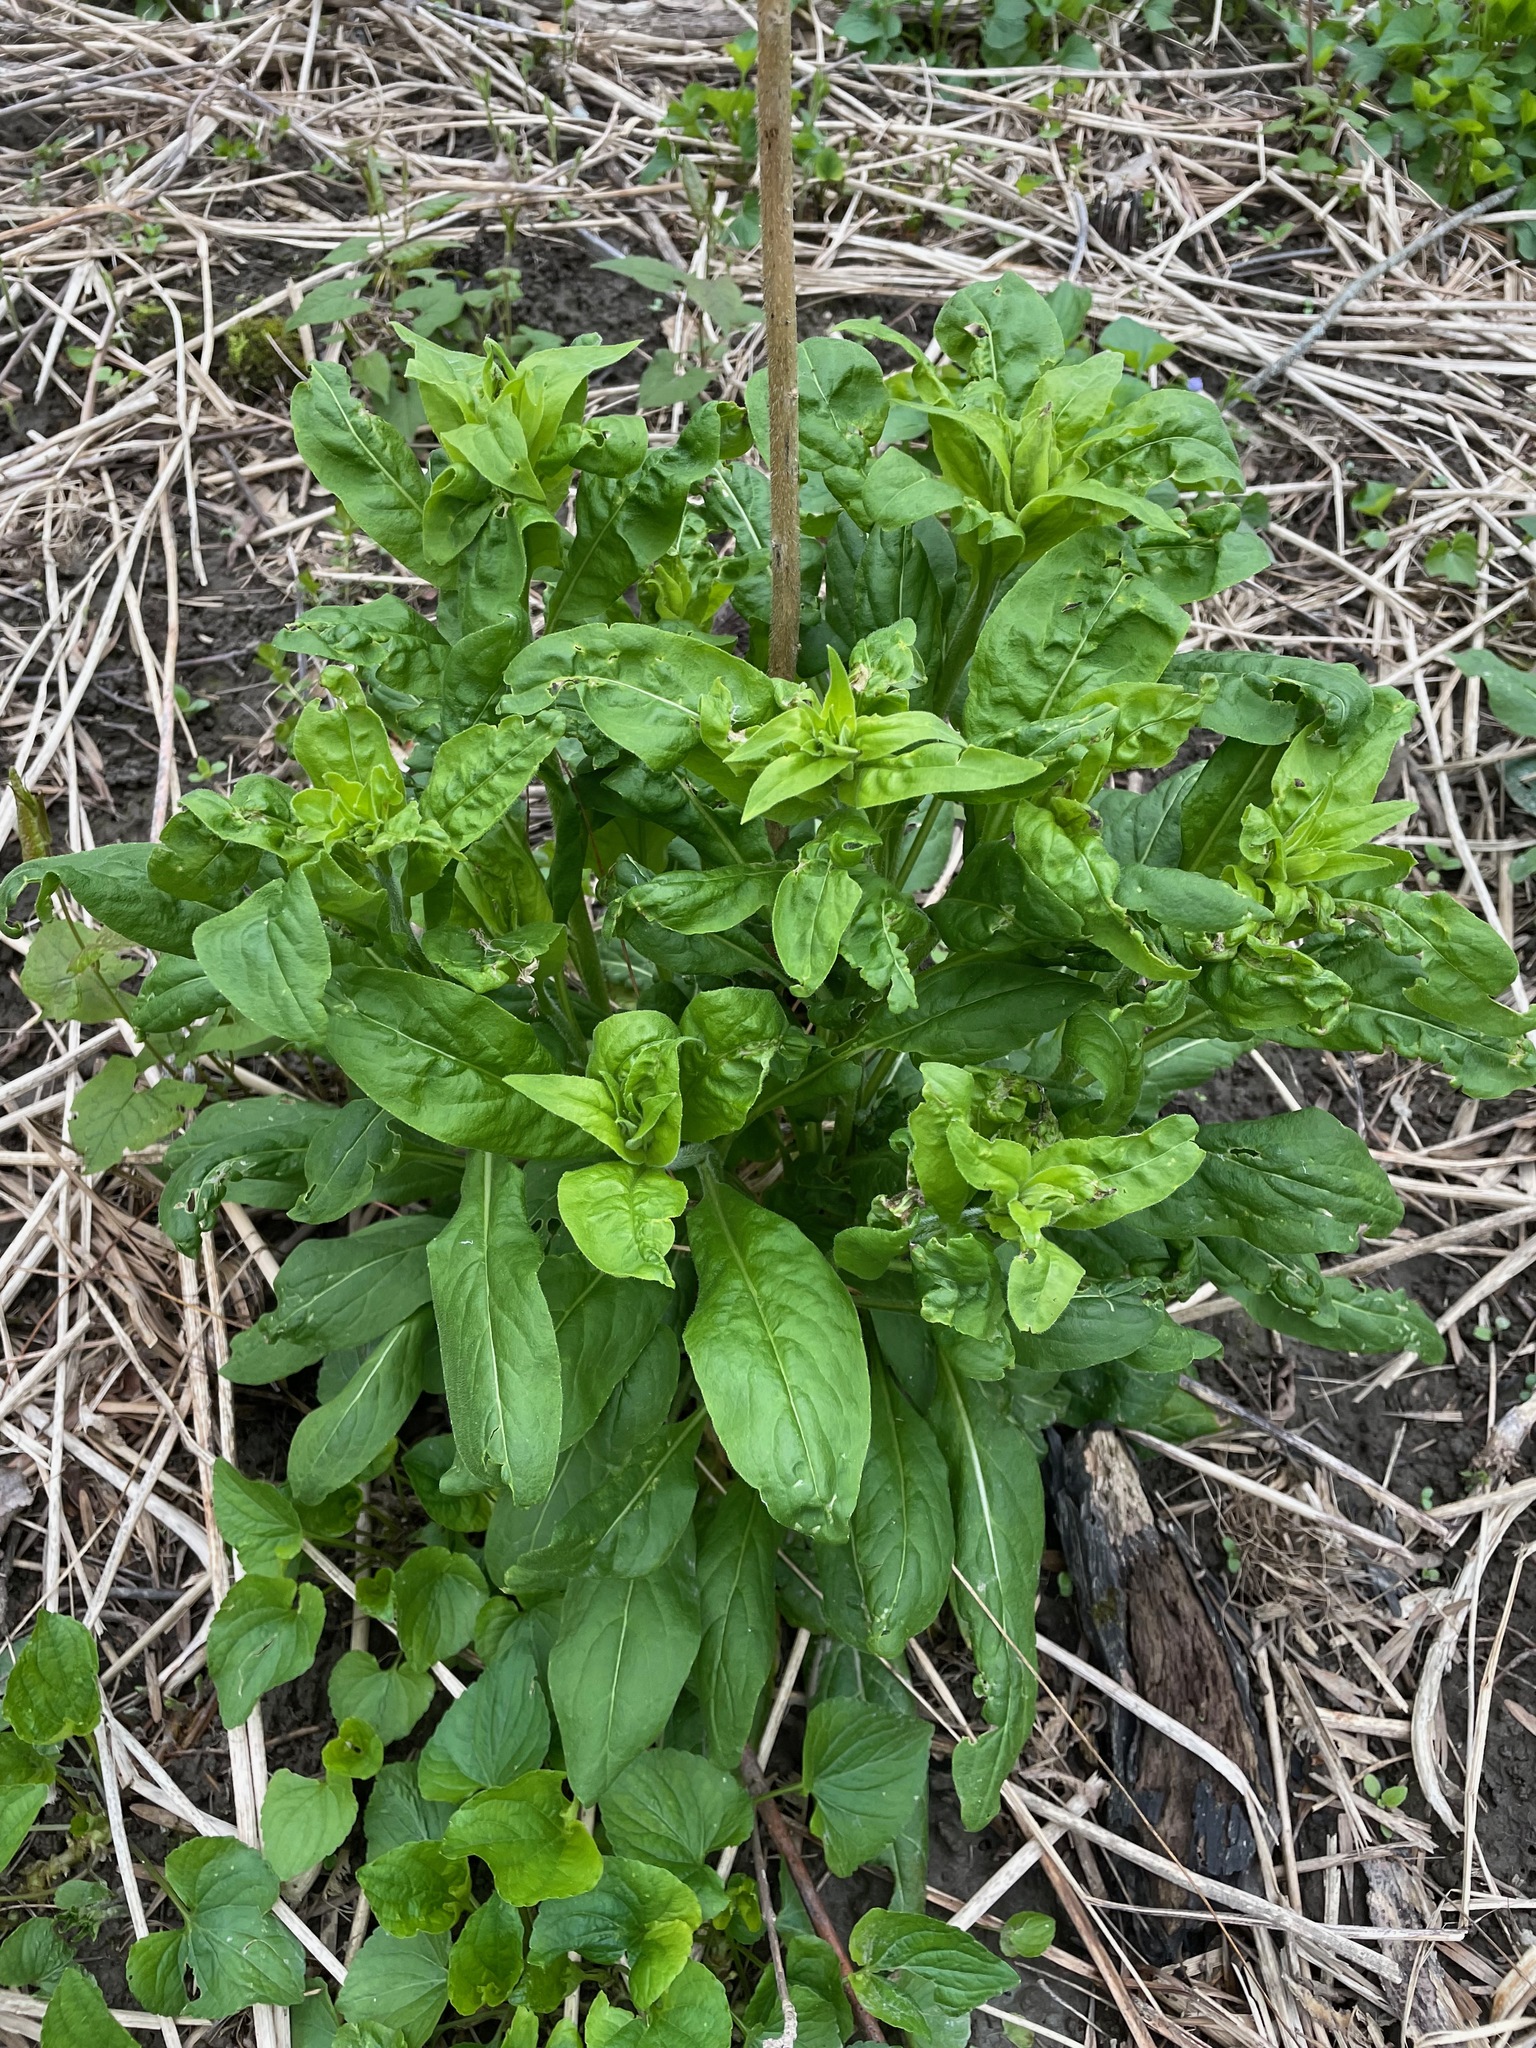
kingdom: Plantae
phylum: Tracheophyta
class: Magnoliopsida
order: Brassicales
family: Brassicaceae
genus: Hesperis
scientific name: Hesperis matronalis
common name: Dame's-violet
